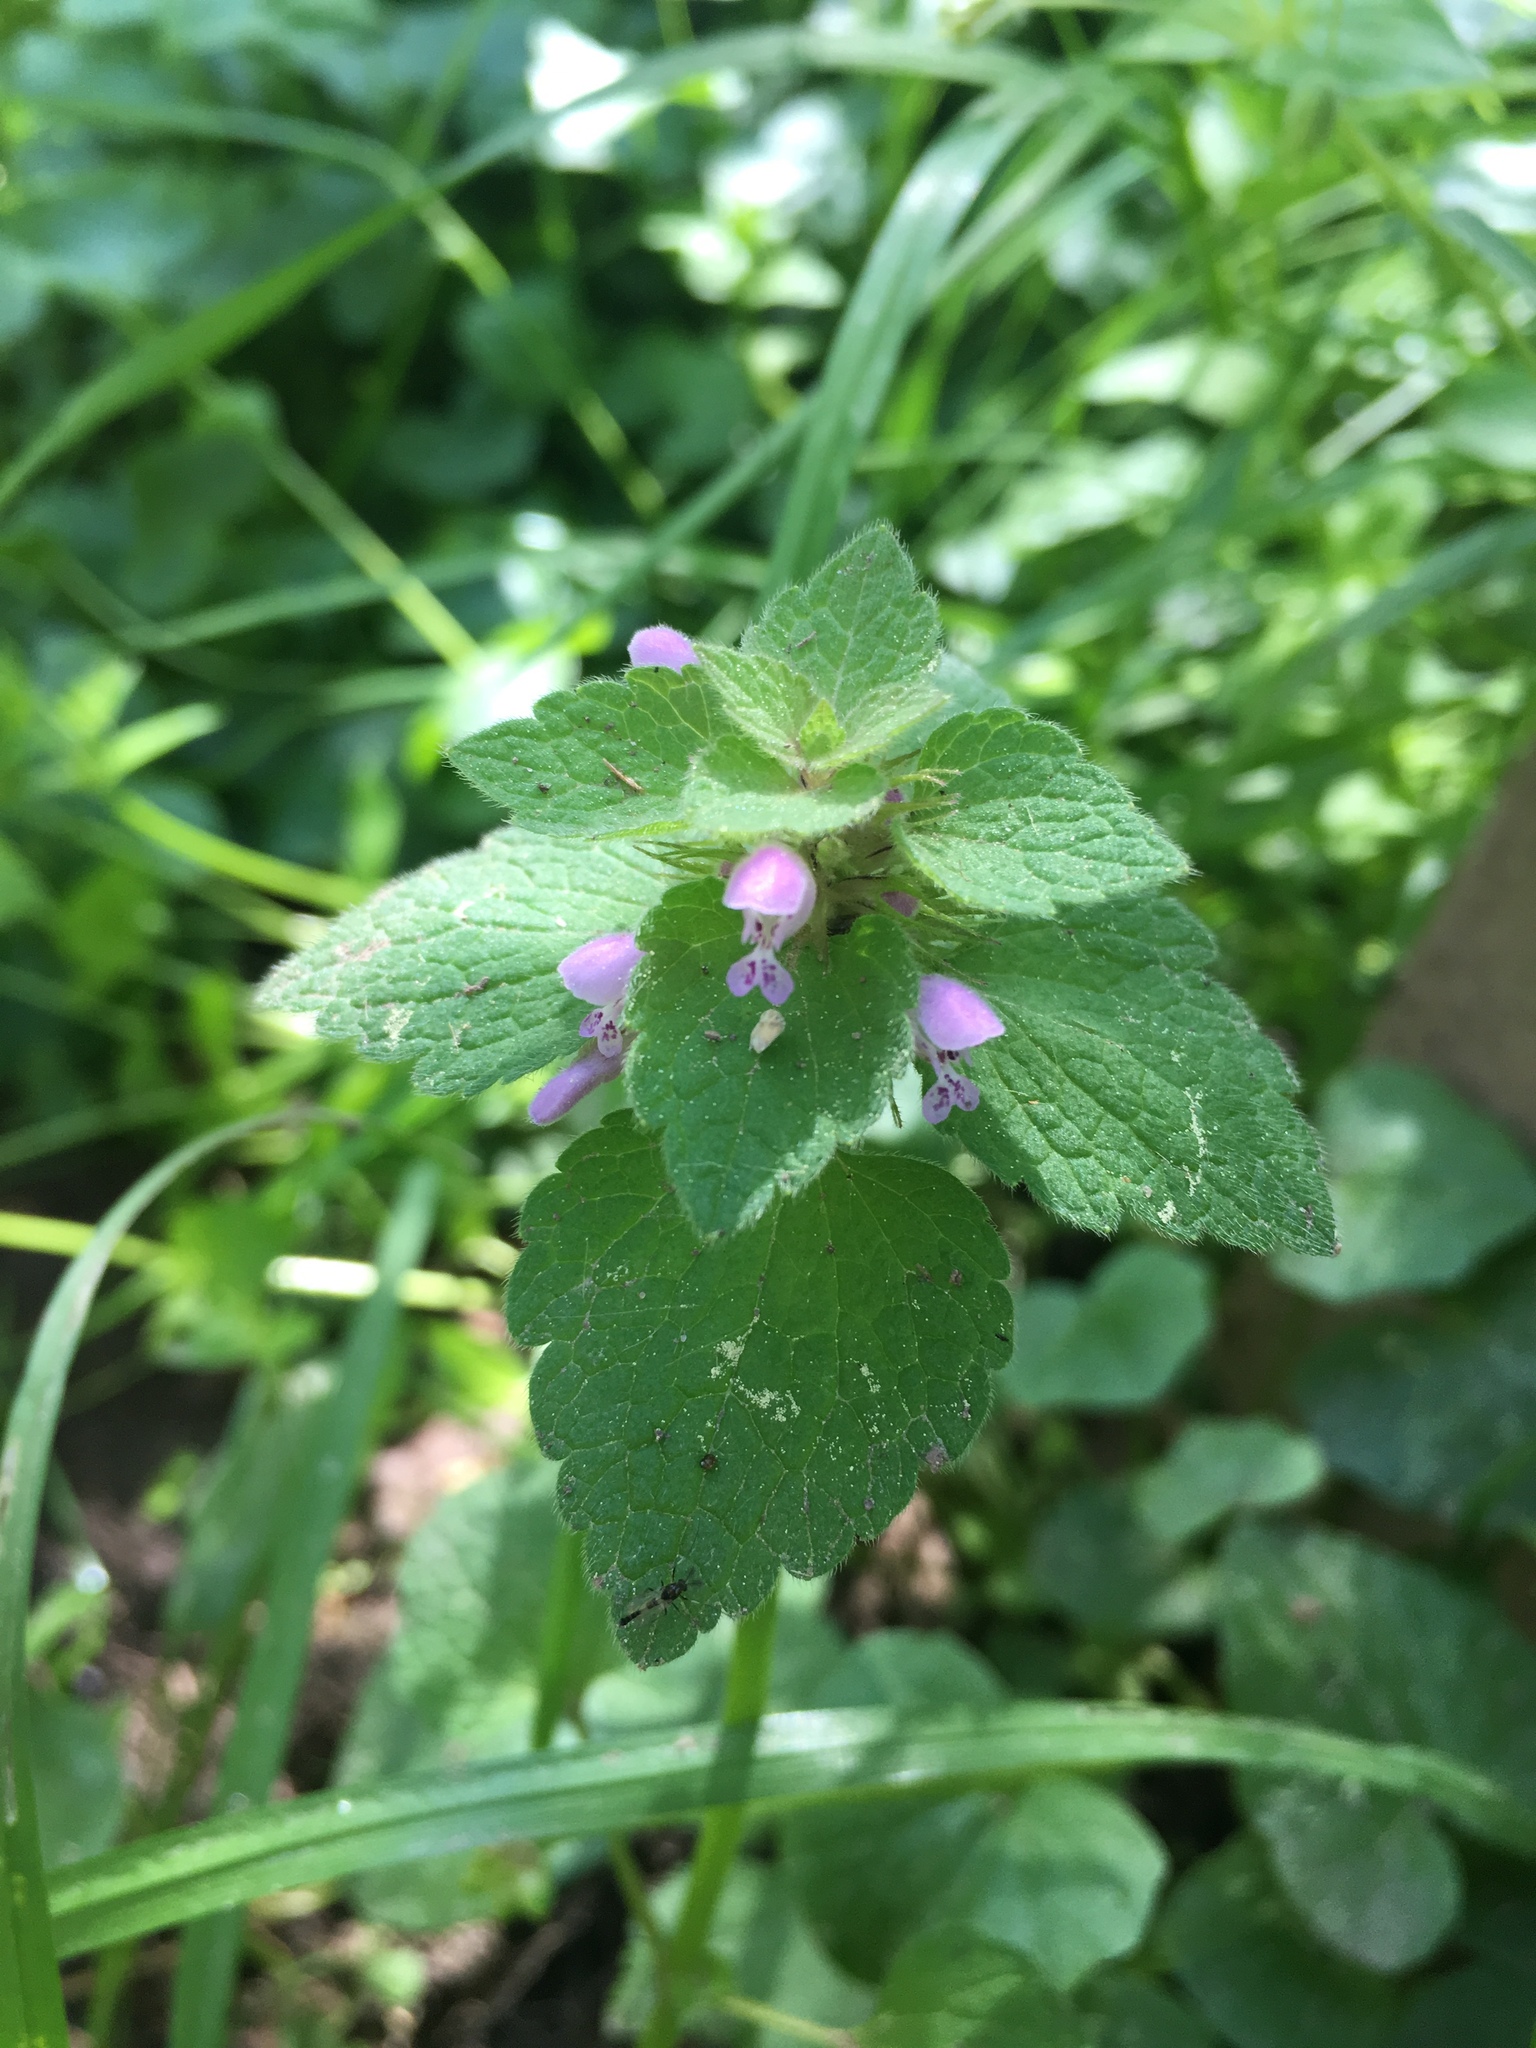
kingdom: Plantae
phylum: Tracheophyta
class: Magnoliopsida
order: Lamiales
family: Lamiaceae
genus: Lamium
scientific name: Lamium purpureum
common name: Red dead-nettle
